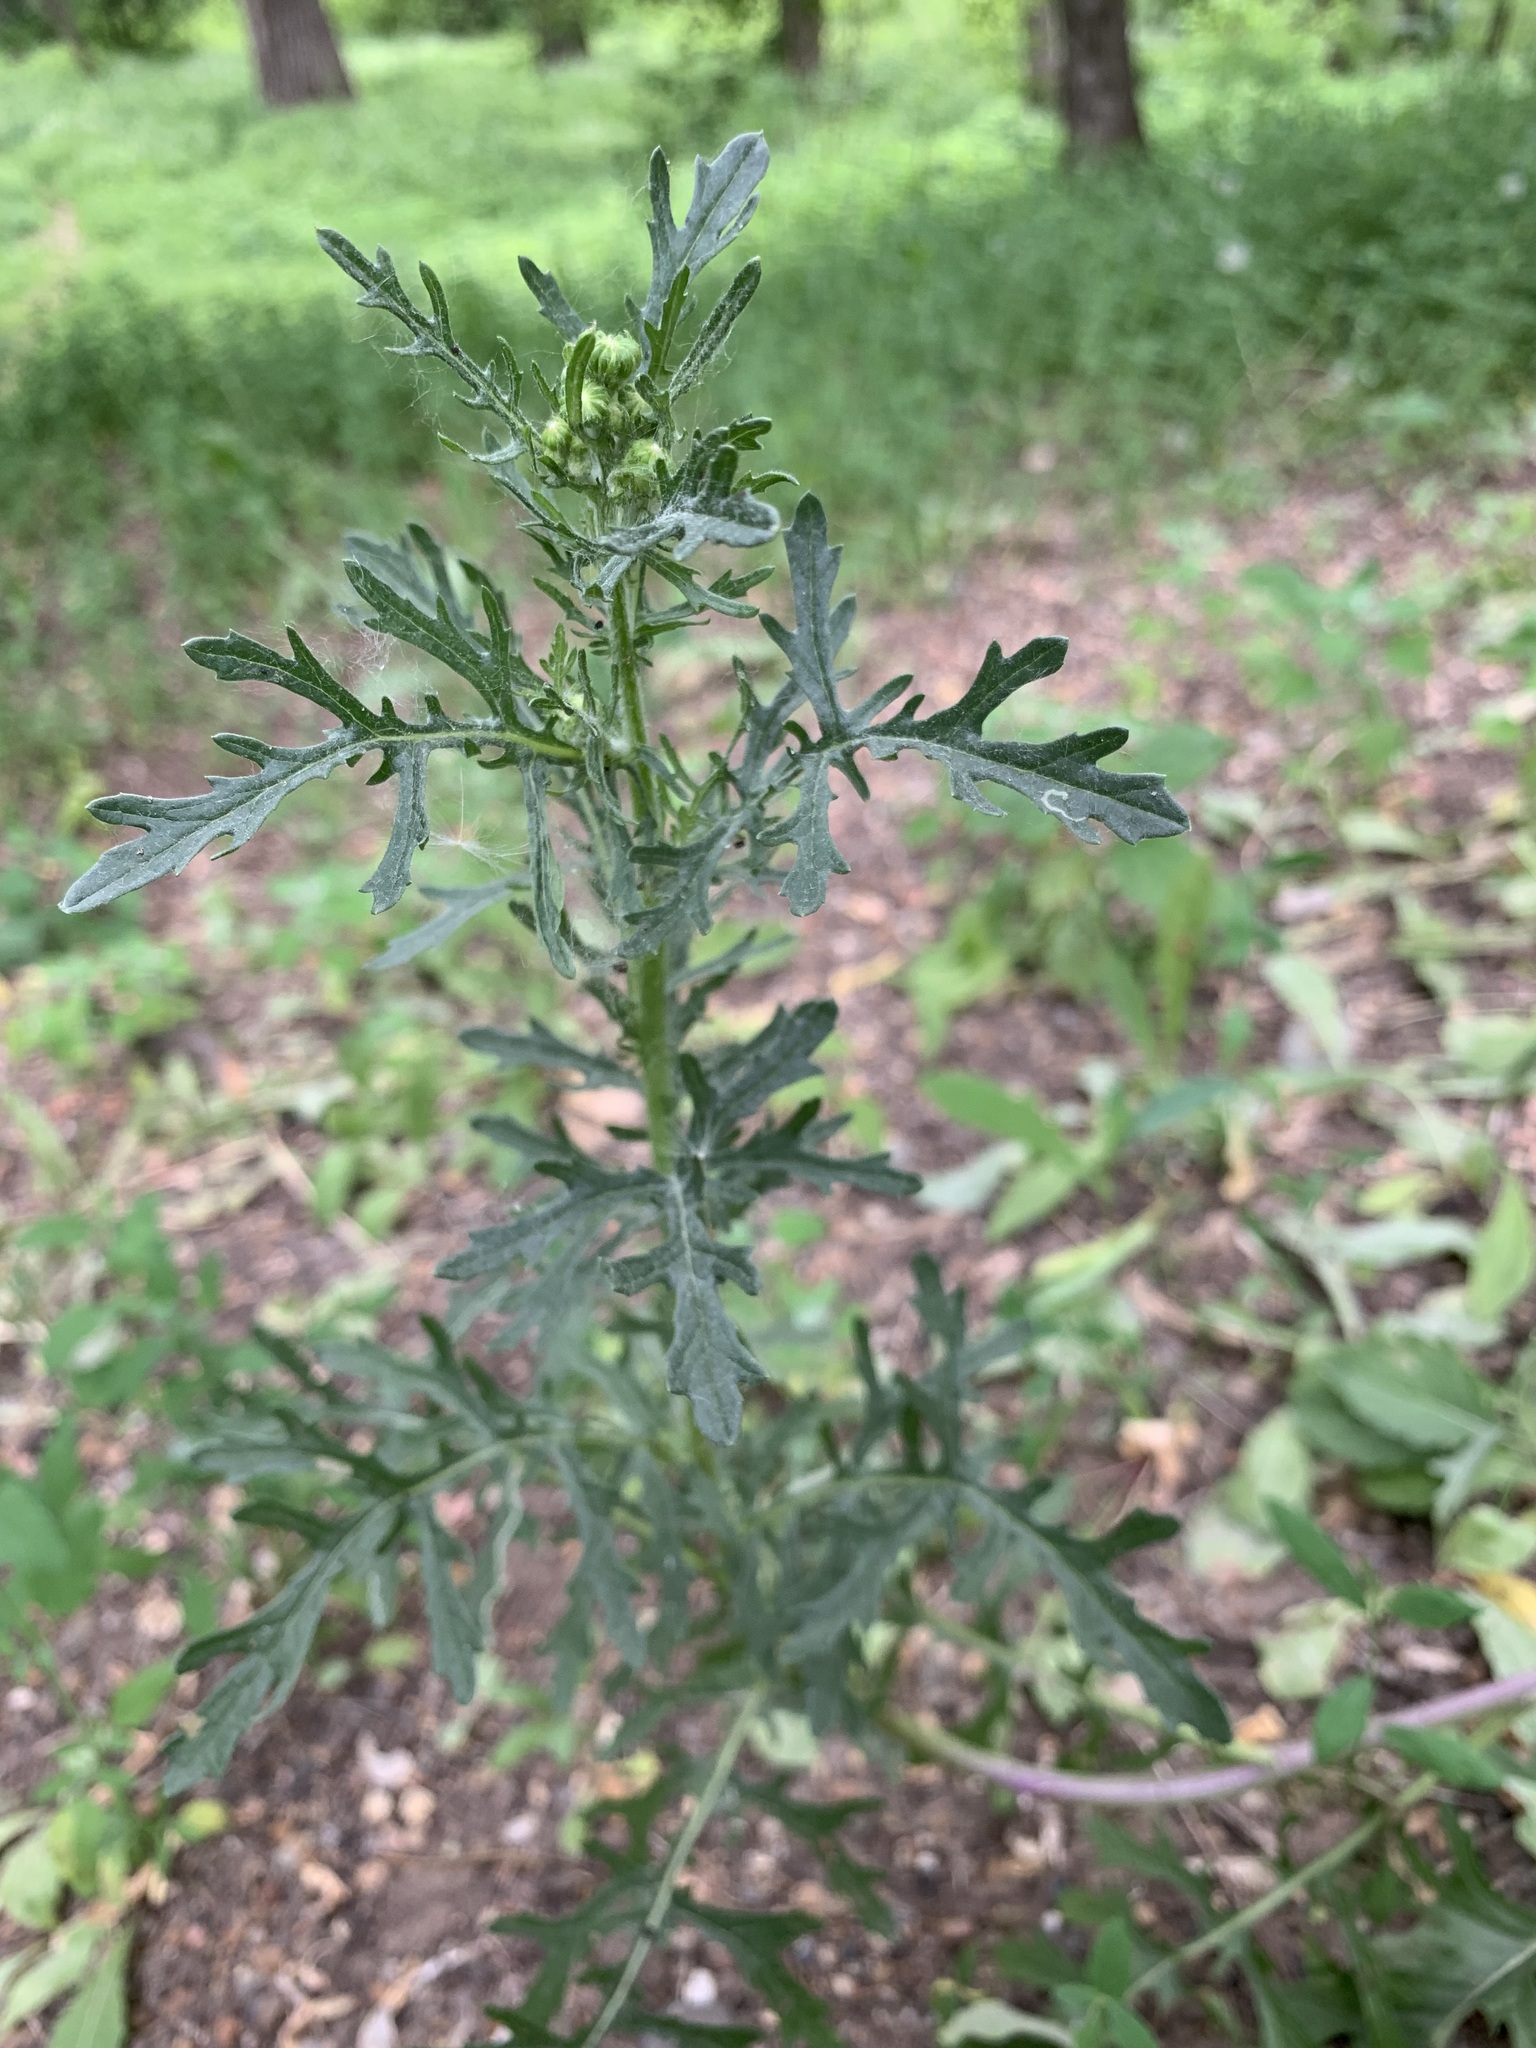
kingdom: Plantae
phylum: Tracheophyta
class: Magnoliopsida
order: Asterales
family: Asteraceae
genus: Jacobaea
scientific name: Jacobaea vulgaris
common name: Stinking willie
